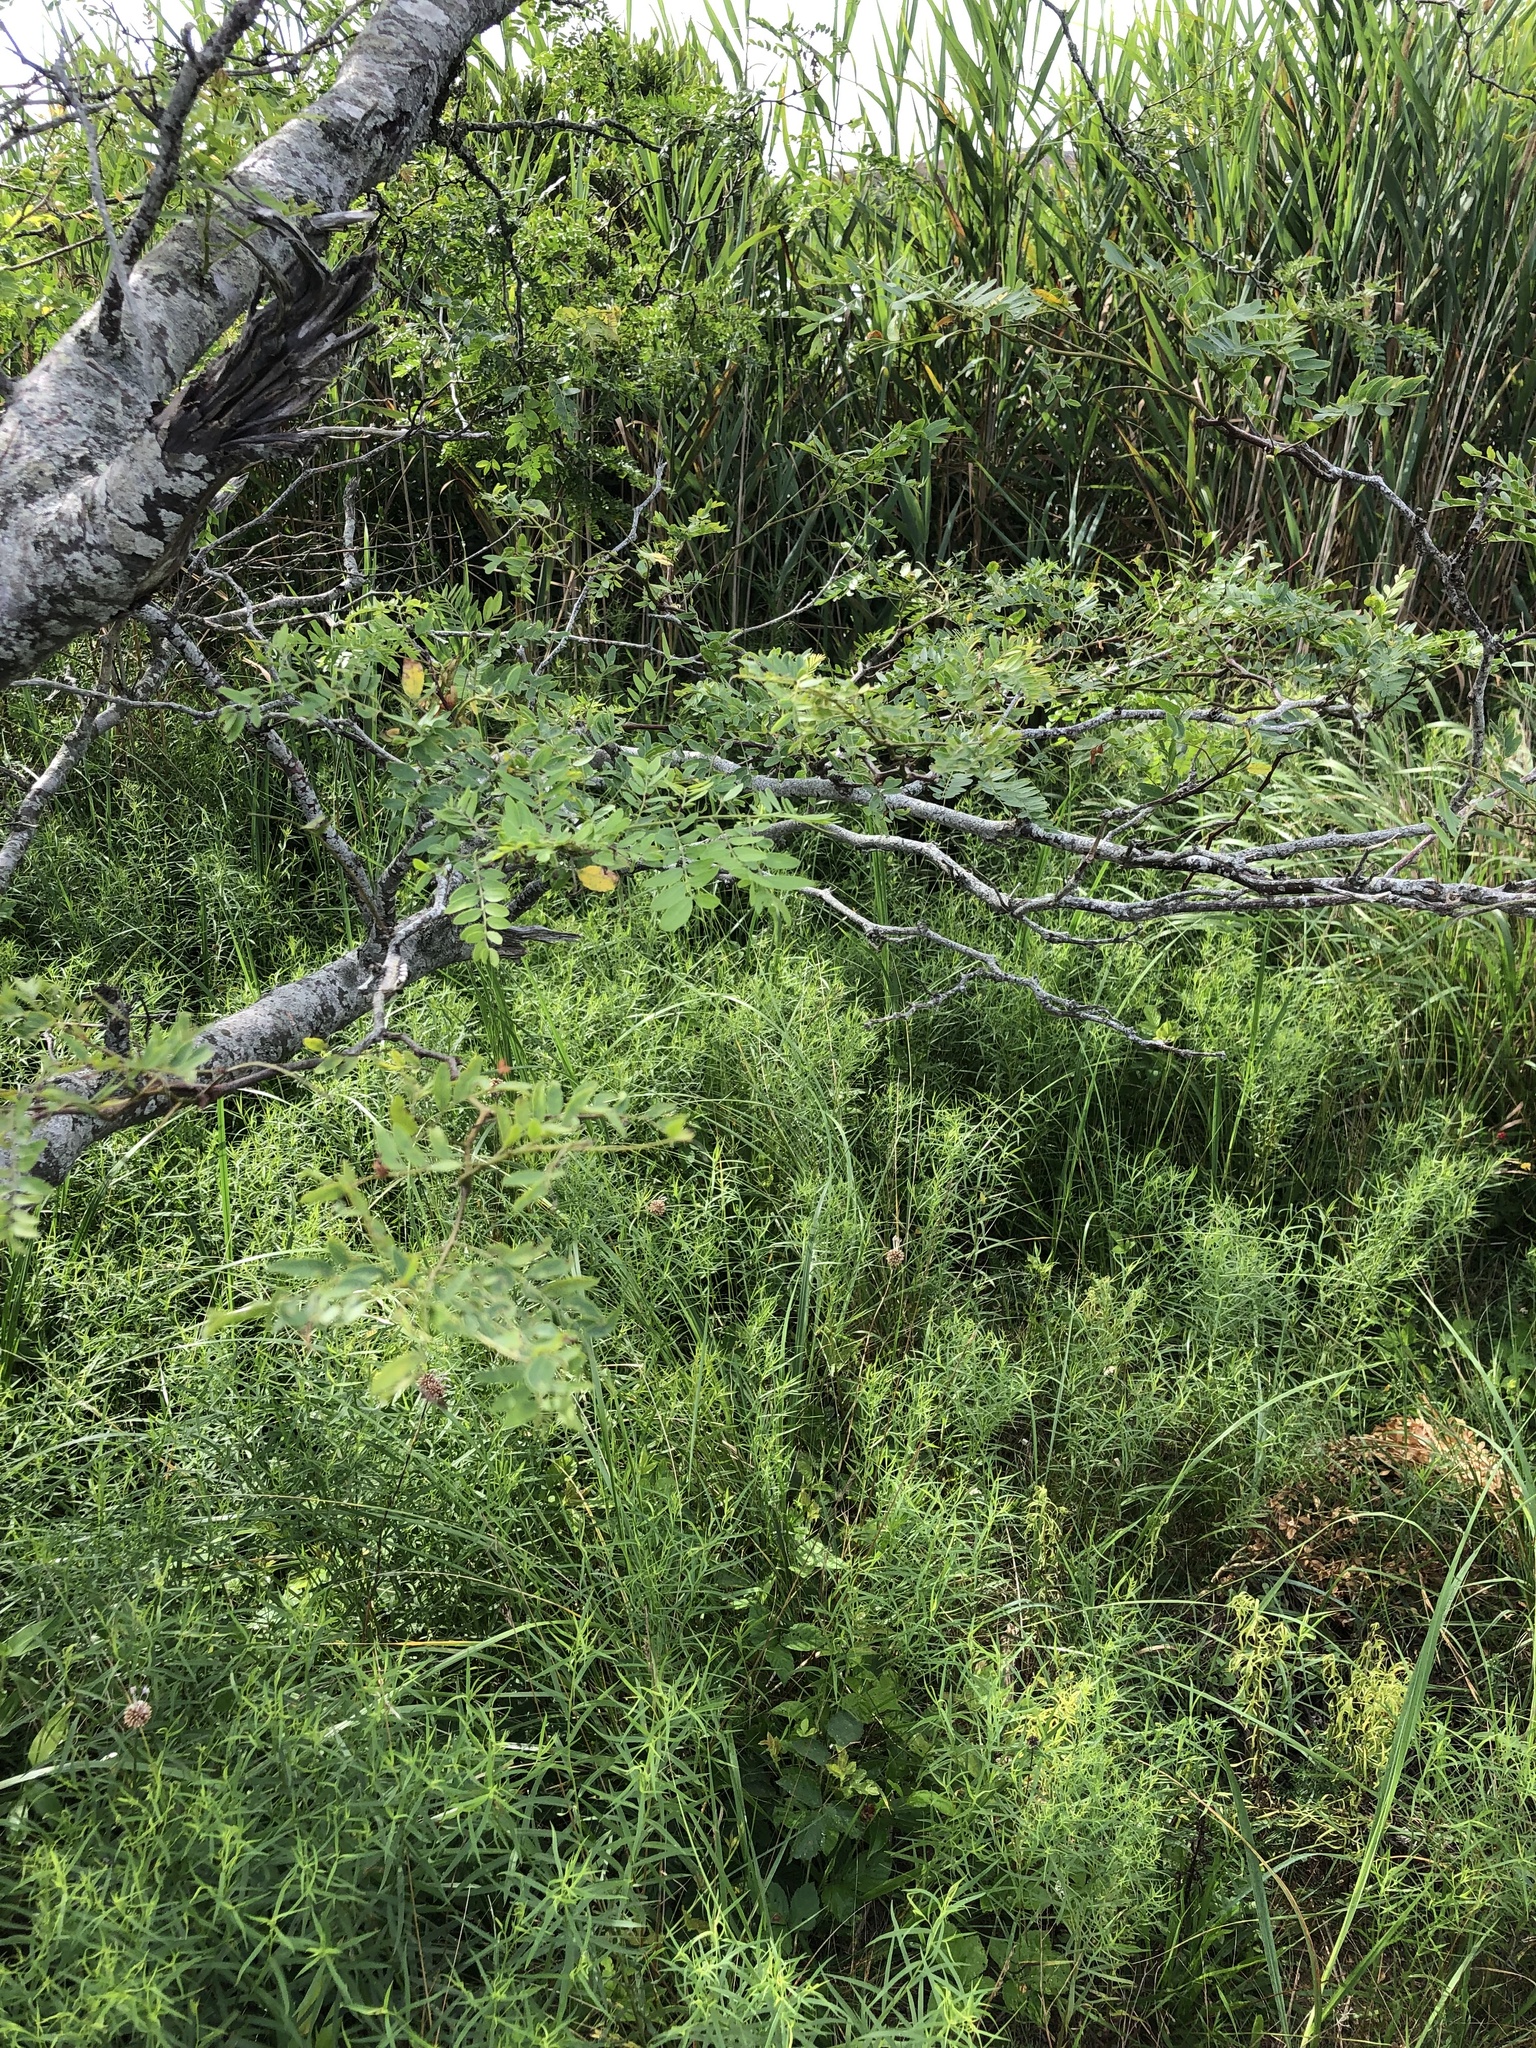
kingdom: Plantae
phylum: Tracheophyta
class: Magnoliopsida
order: Asterales
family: Asteraceae
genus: Euthamia
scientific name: Euthamia graminifolia
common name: Common goldentop
